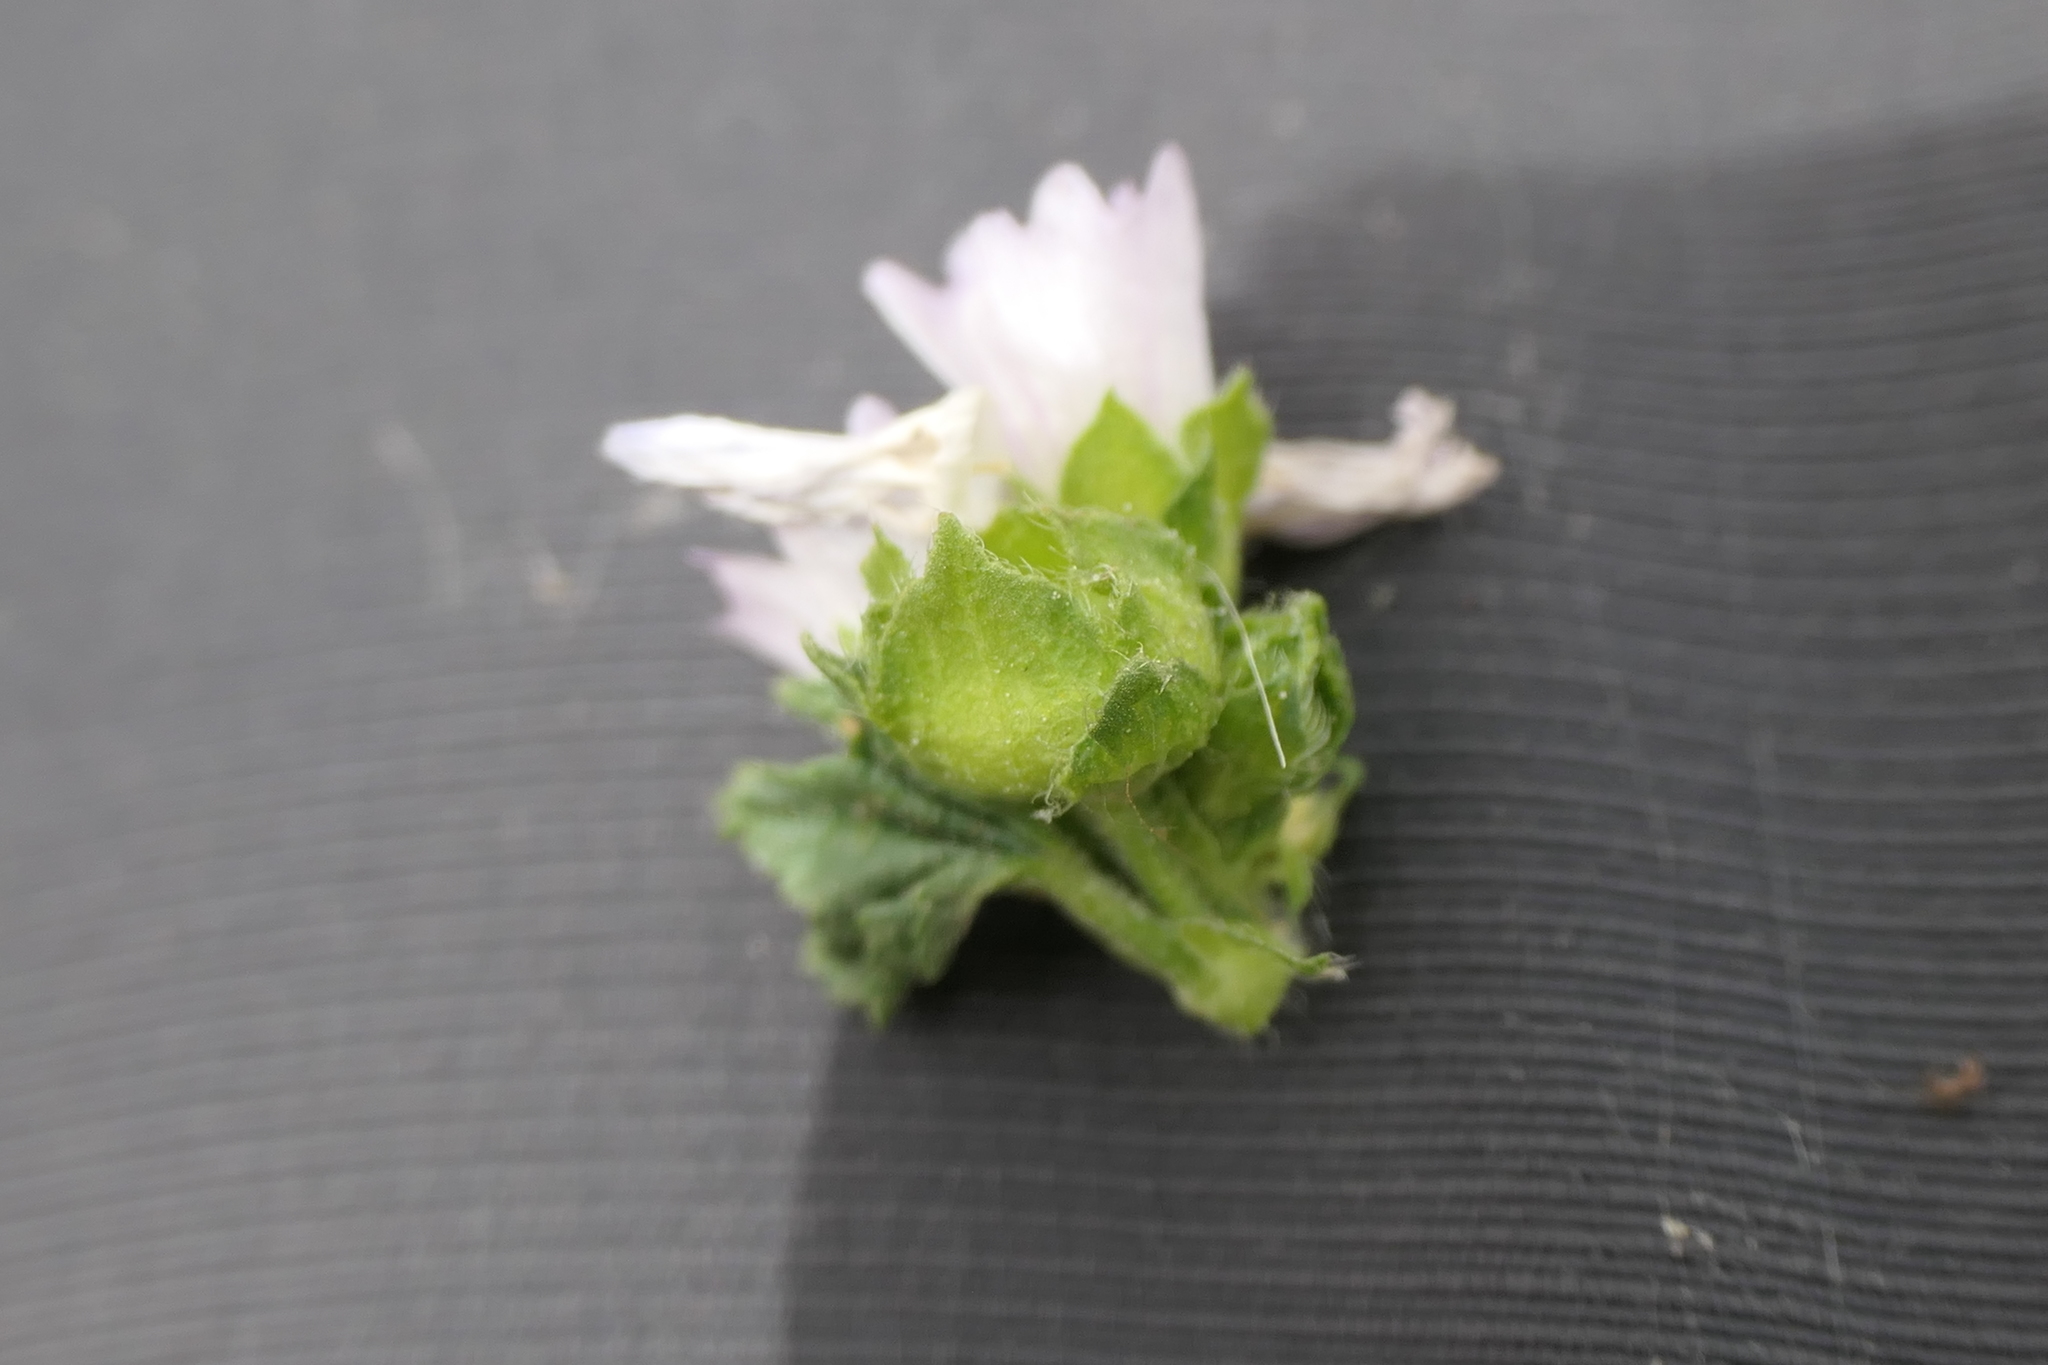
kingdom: Plantae
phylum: Tracheophyta
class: Magnoliopsida
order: Malvales
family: Malvaceae
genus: Malva
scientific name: Malva nicaeensis
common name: French mallow
